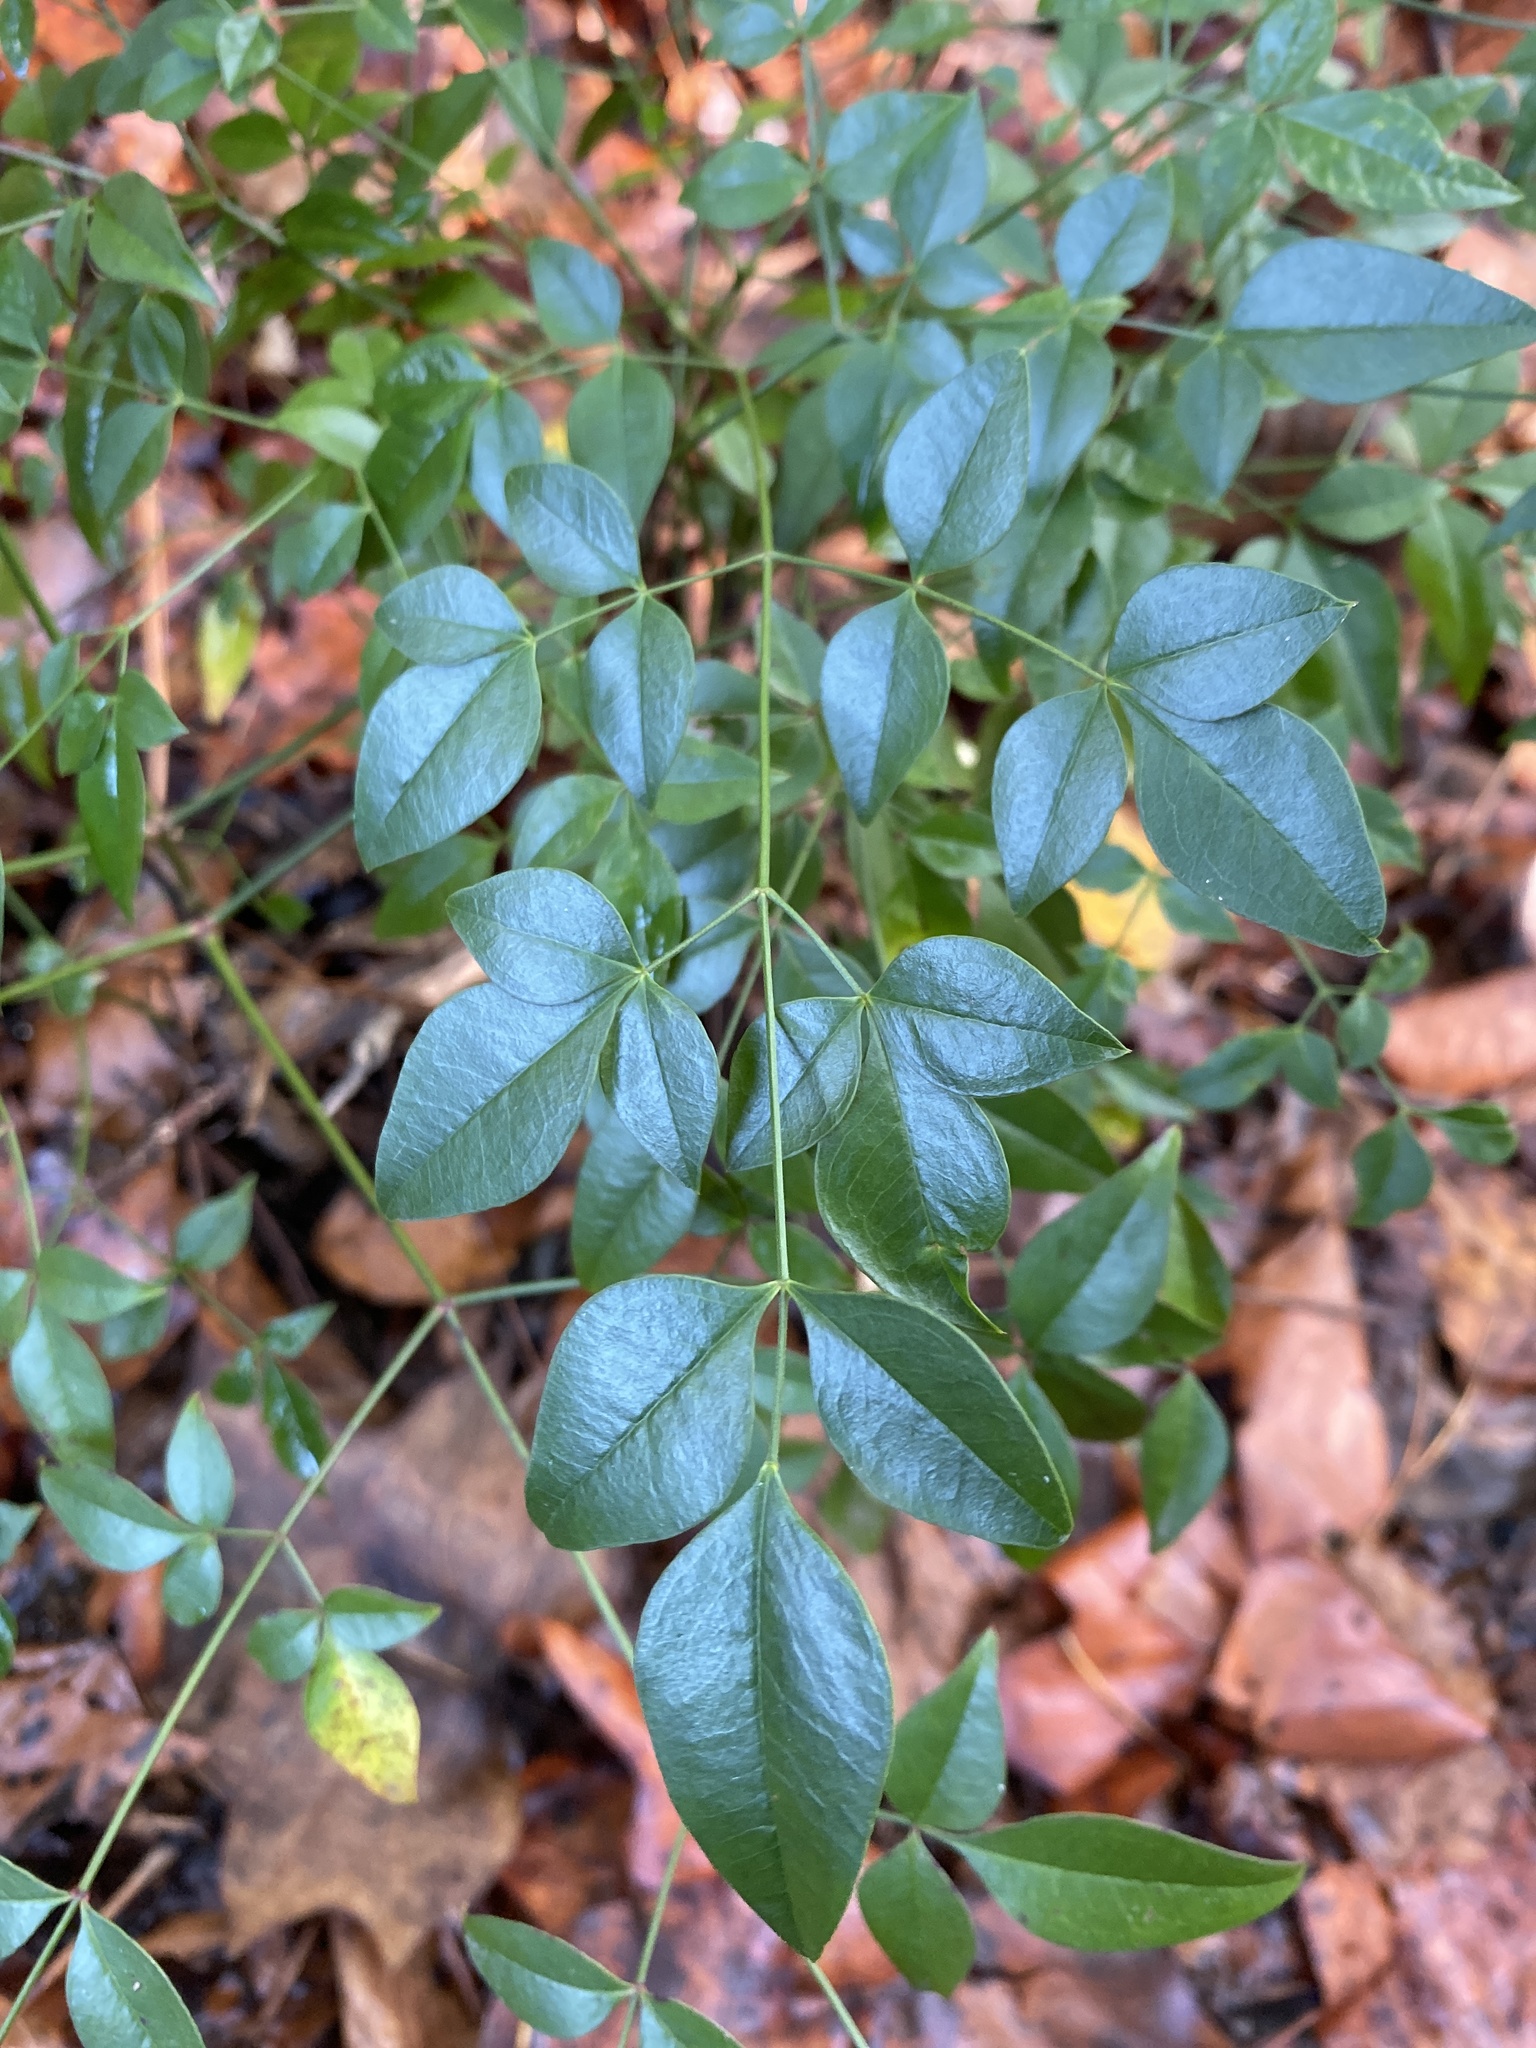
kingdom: Plantae
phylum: Tracheophyta
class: Magnoliopsida
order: Ranunculales
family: Berberidaceae
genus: Nandina
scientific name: Nandina domestica
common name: Sacred bamboo
